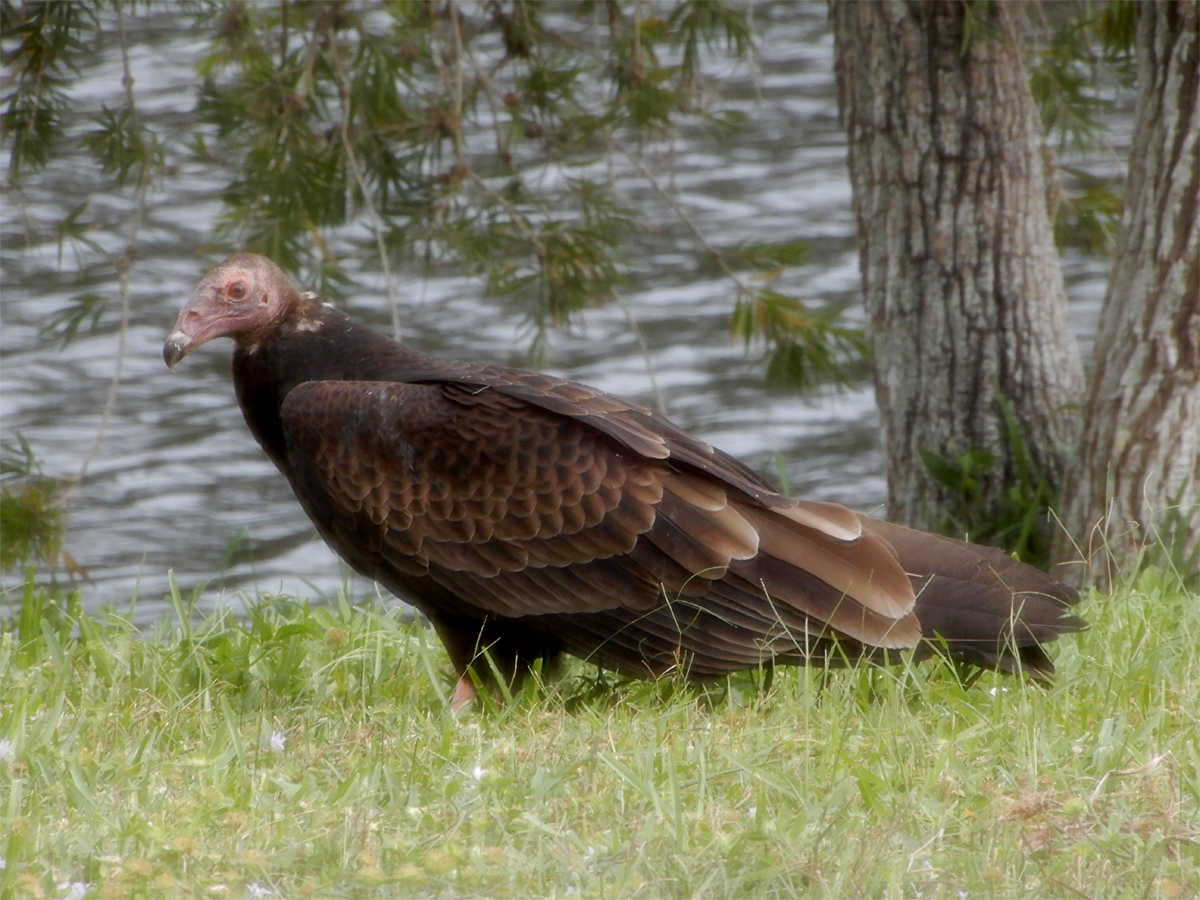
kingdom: Animalia
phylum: Chordata
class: Aves
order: Accipitriformes
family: Cathartidae
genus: Cathartes
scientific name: Cathartes aura
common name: Turkey vulture
